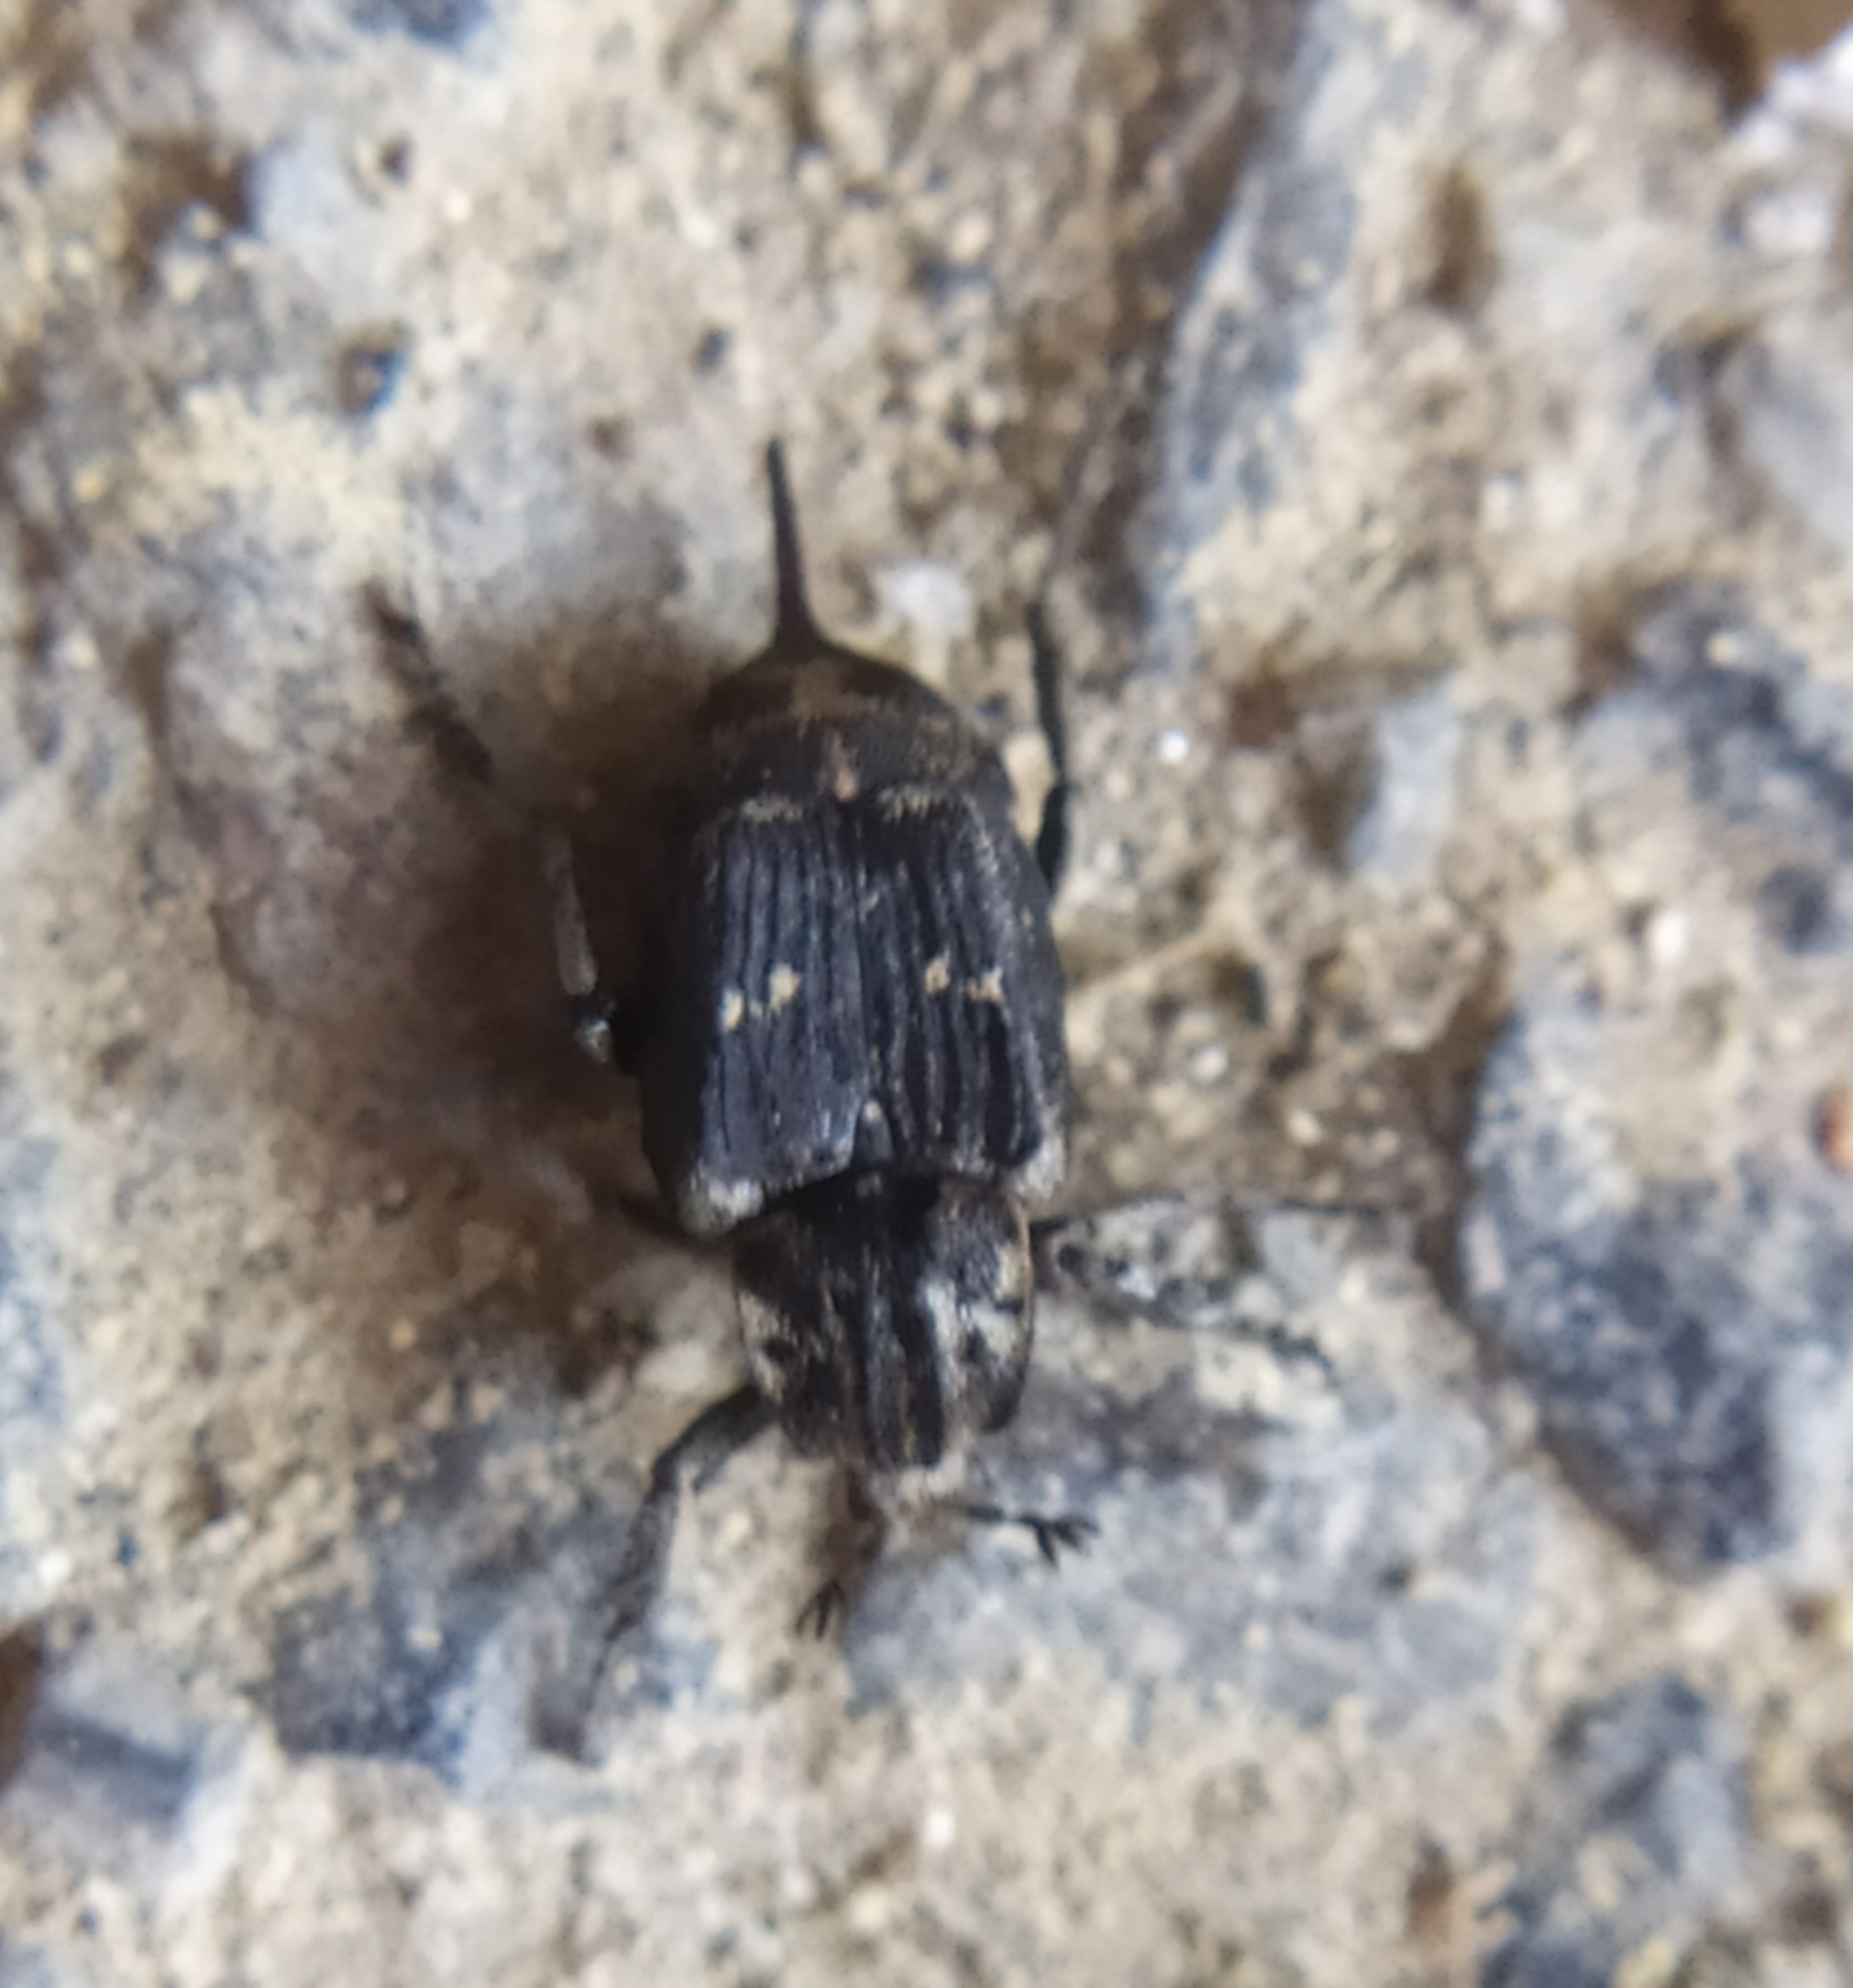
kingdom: Animalia
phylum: Arthropoda
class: Insecta
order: Coleoptera
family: Scarabaeidae
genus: Valgus
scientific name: Valgus hemipterus
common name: Bug flower chafer
